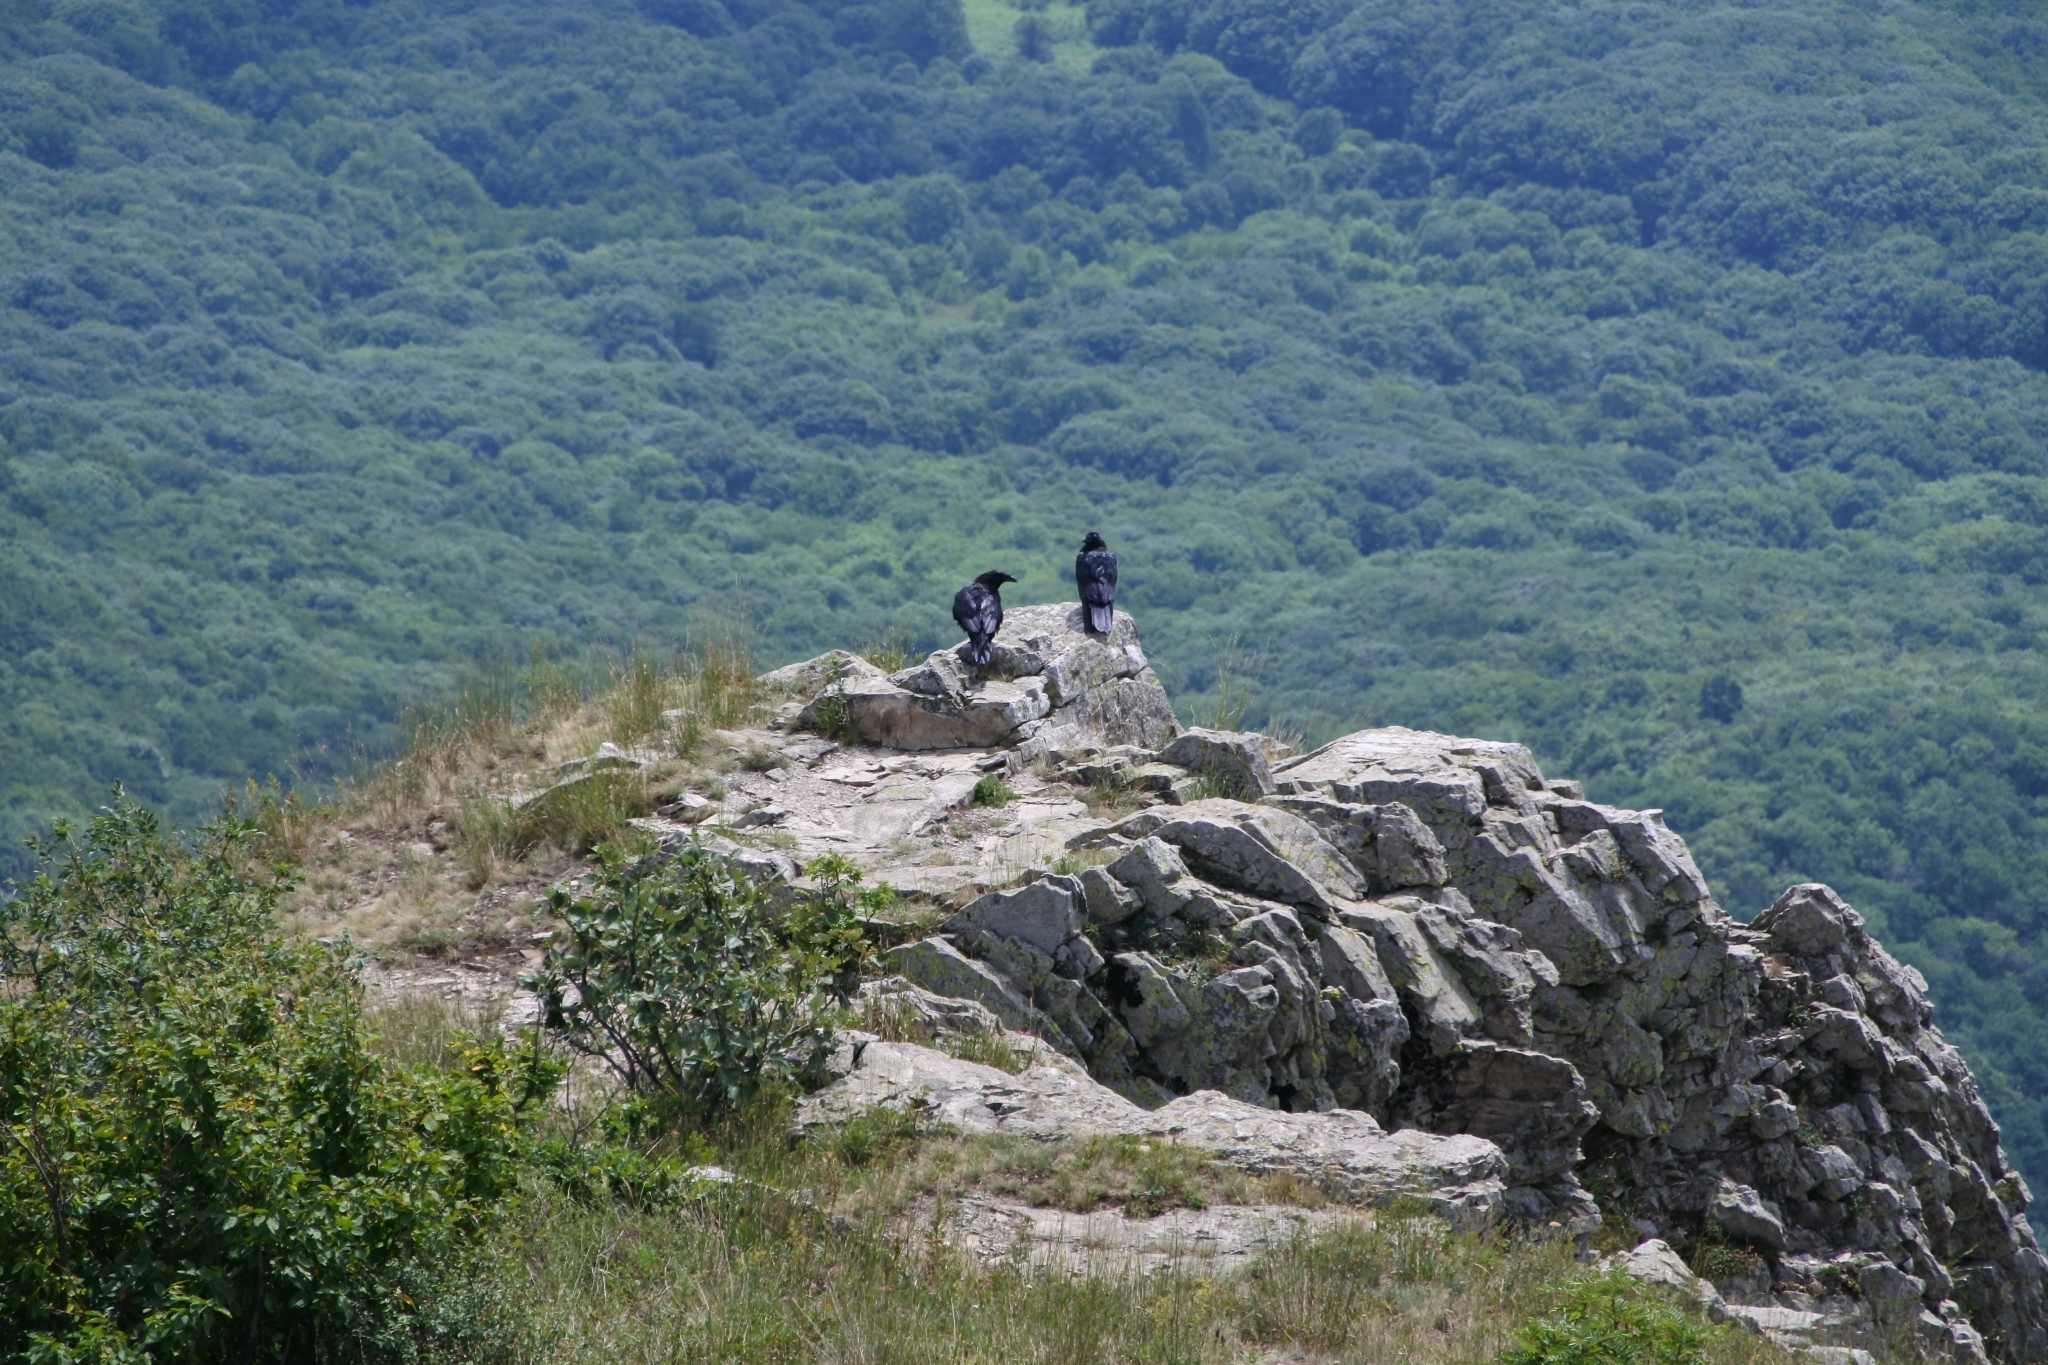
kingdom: Animalia
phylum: Chordata
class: Aves
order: Passeriformes
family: Corvidae
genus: Corvus
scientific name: Corvus corax
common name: Common raven
